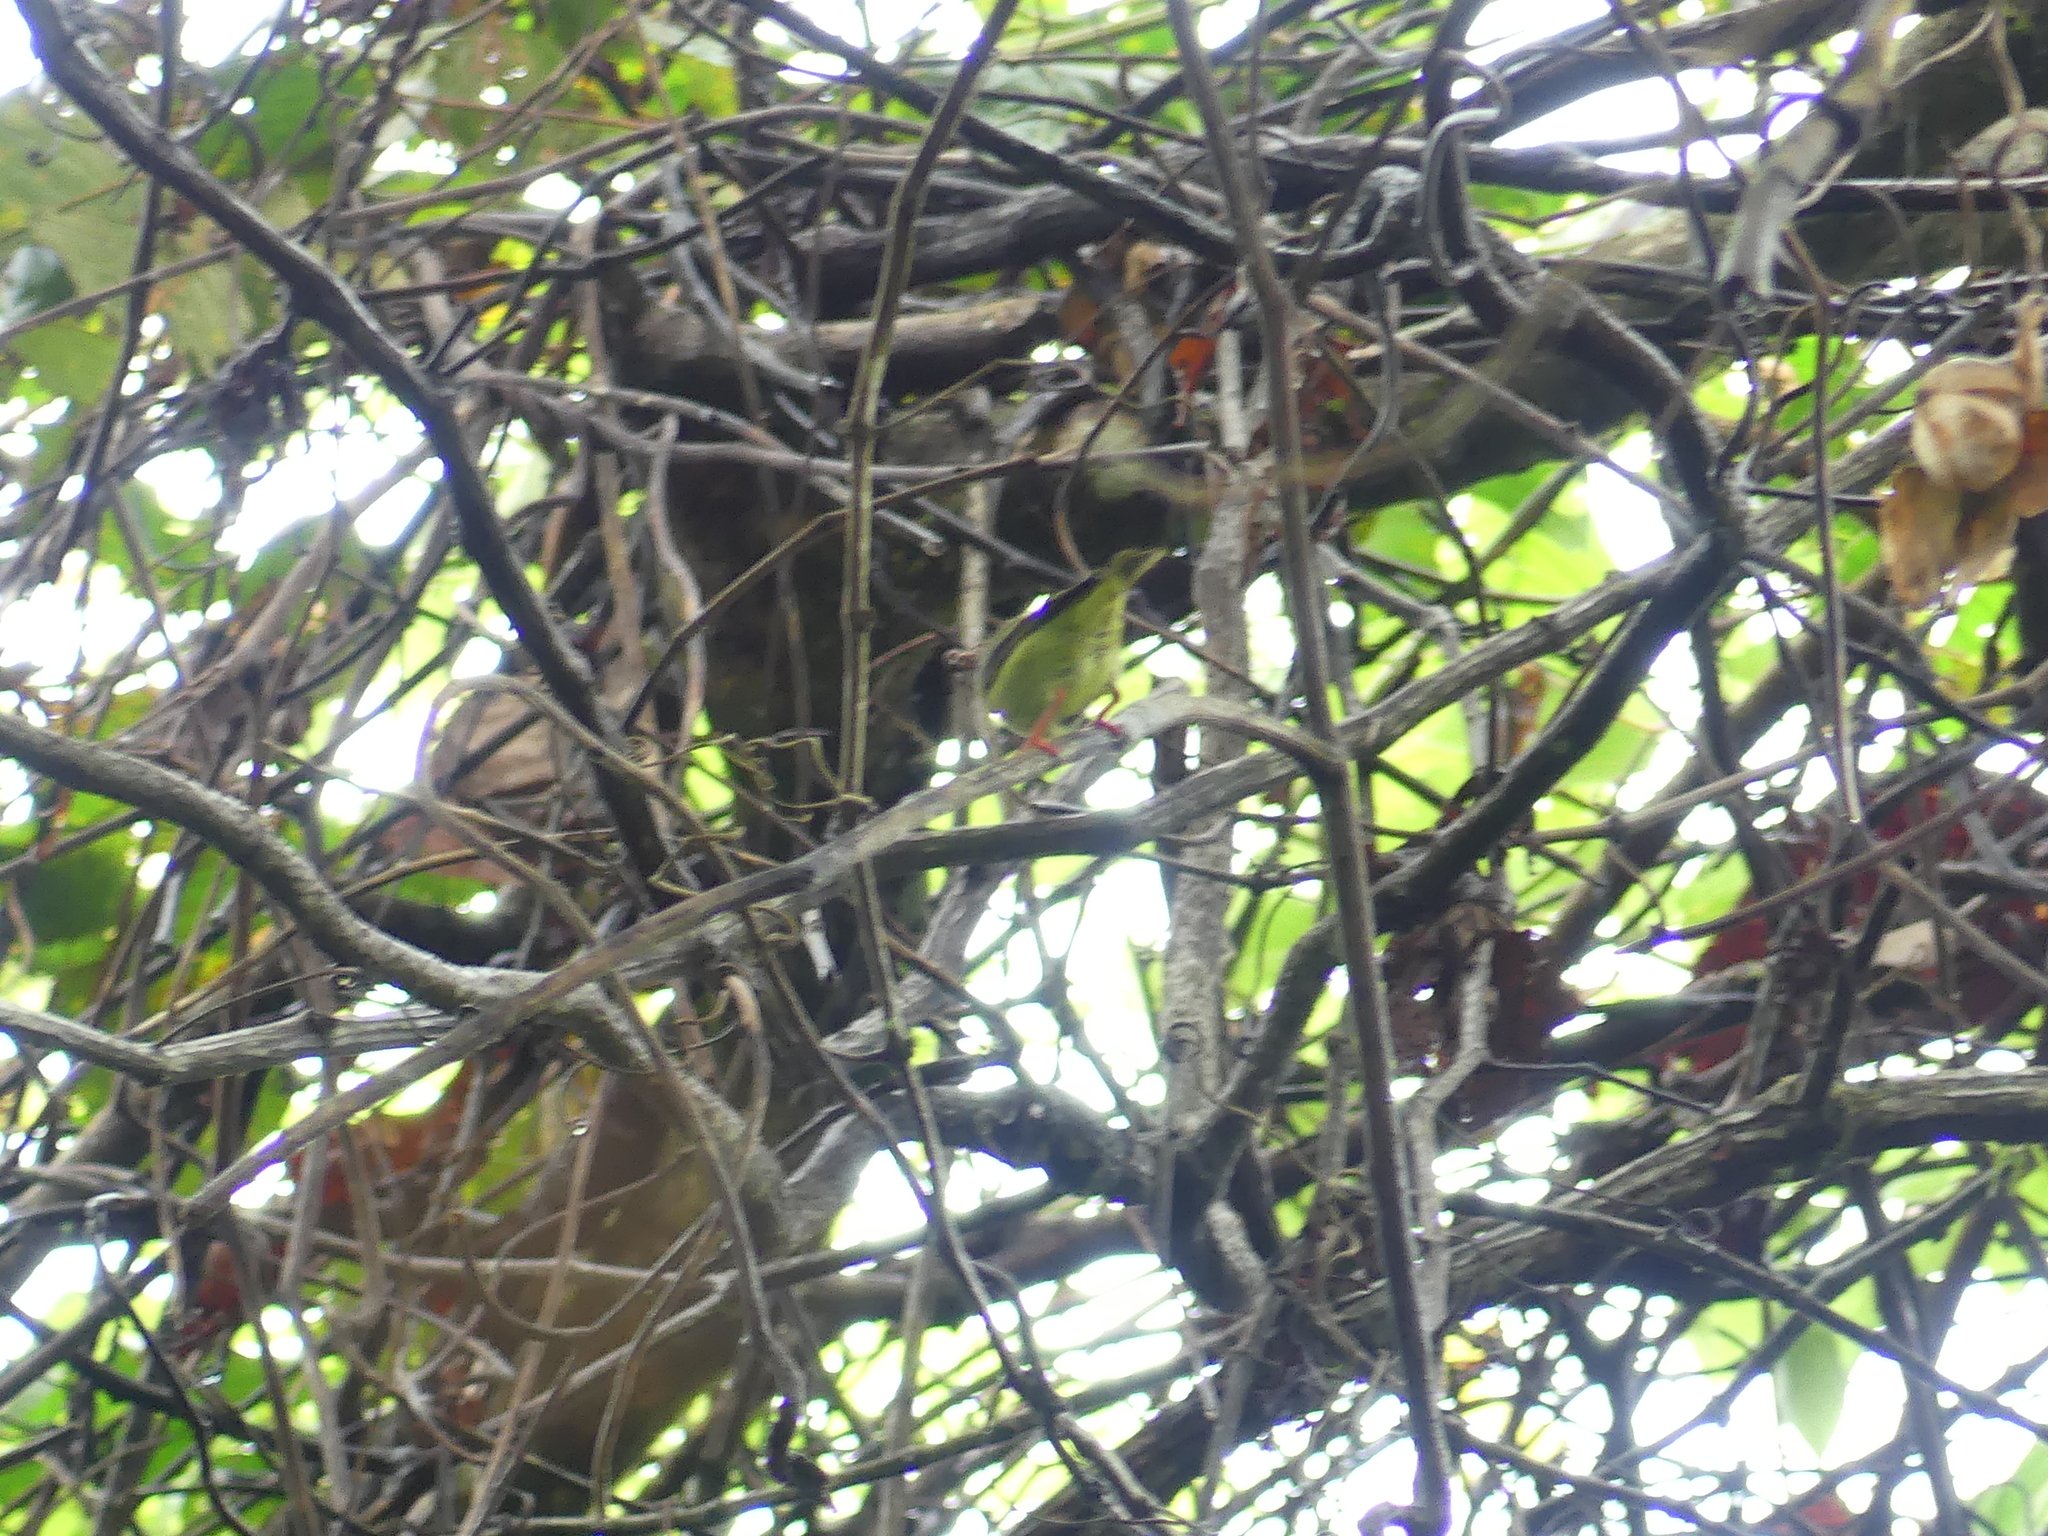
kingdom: Animalia
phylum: Chordata
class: Aves
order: Passeriformes
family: Thraupidae
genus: Cyanerpes
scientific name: Cyanerpes cyaneus
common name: Red-legged honeycreeper
